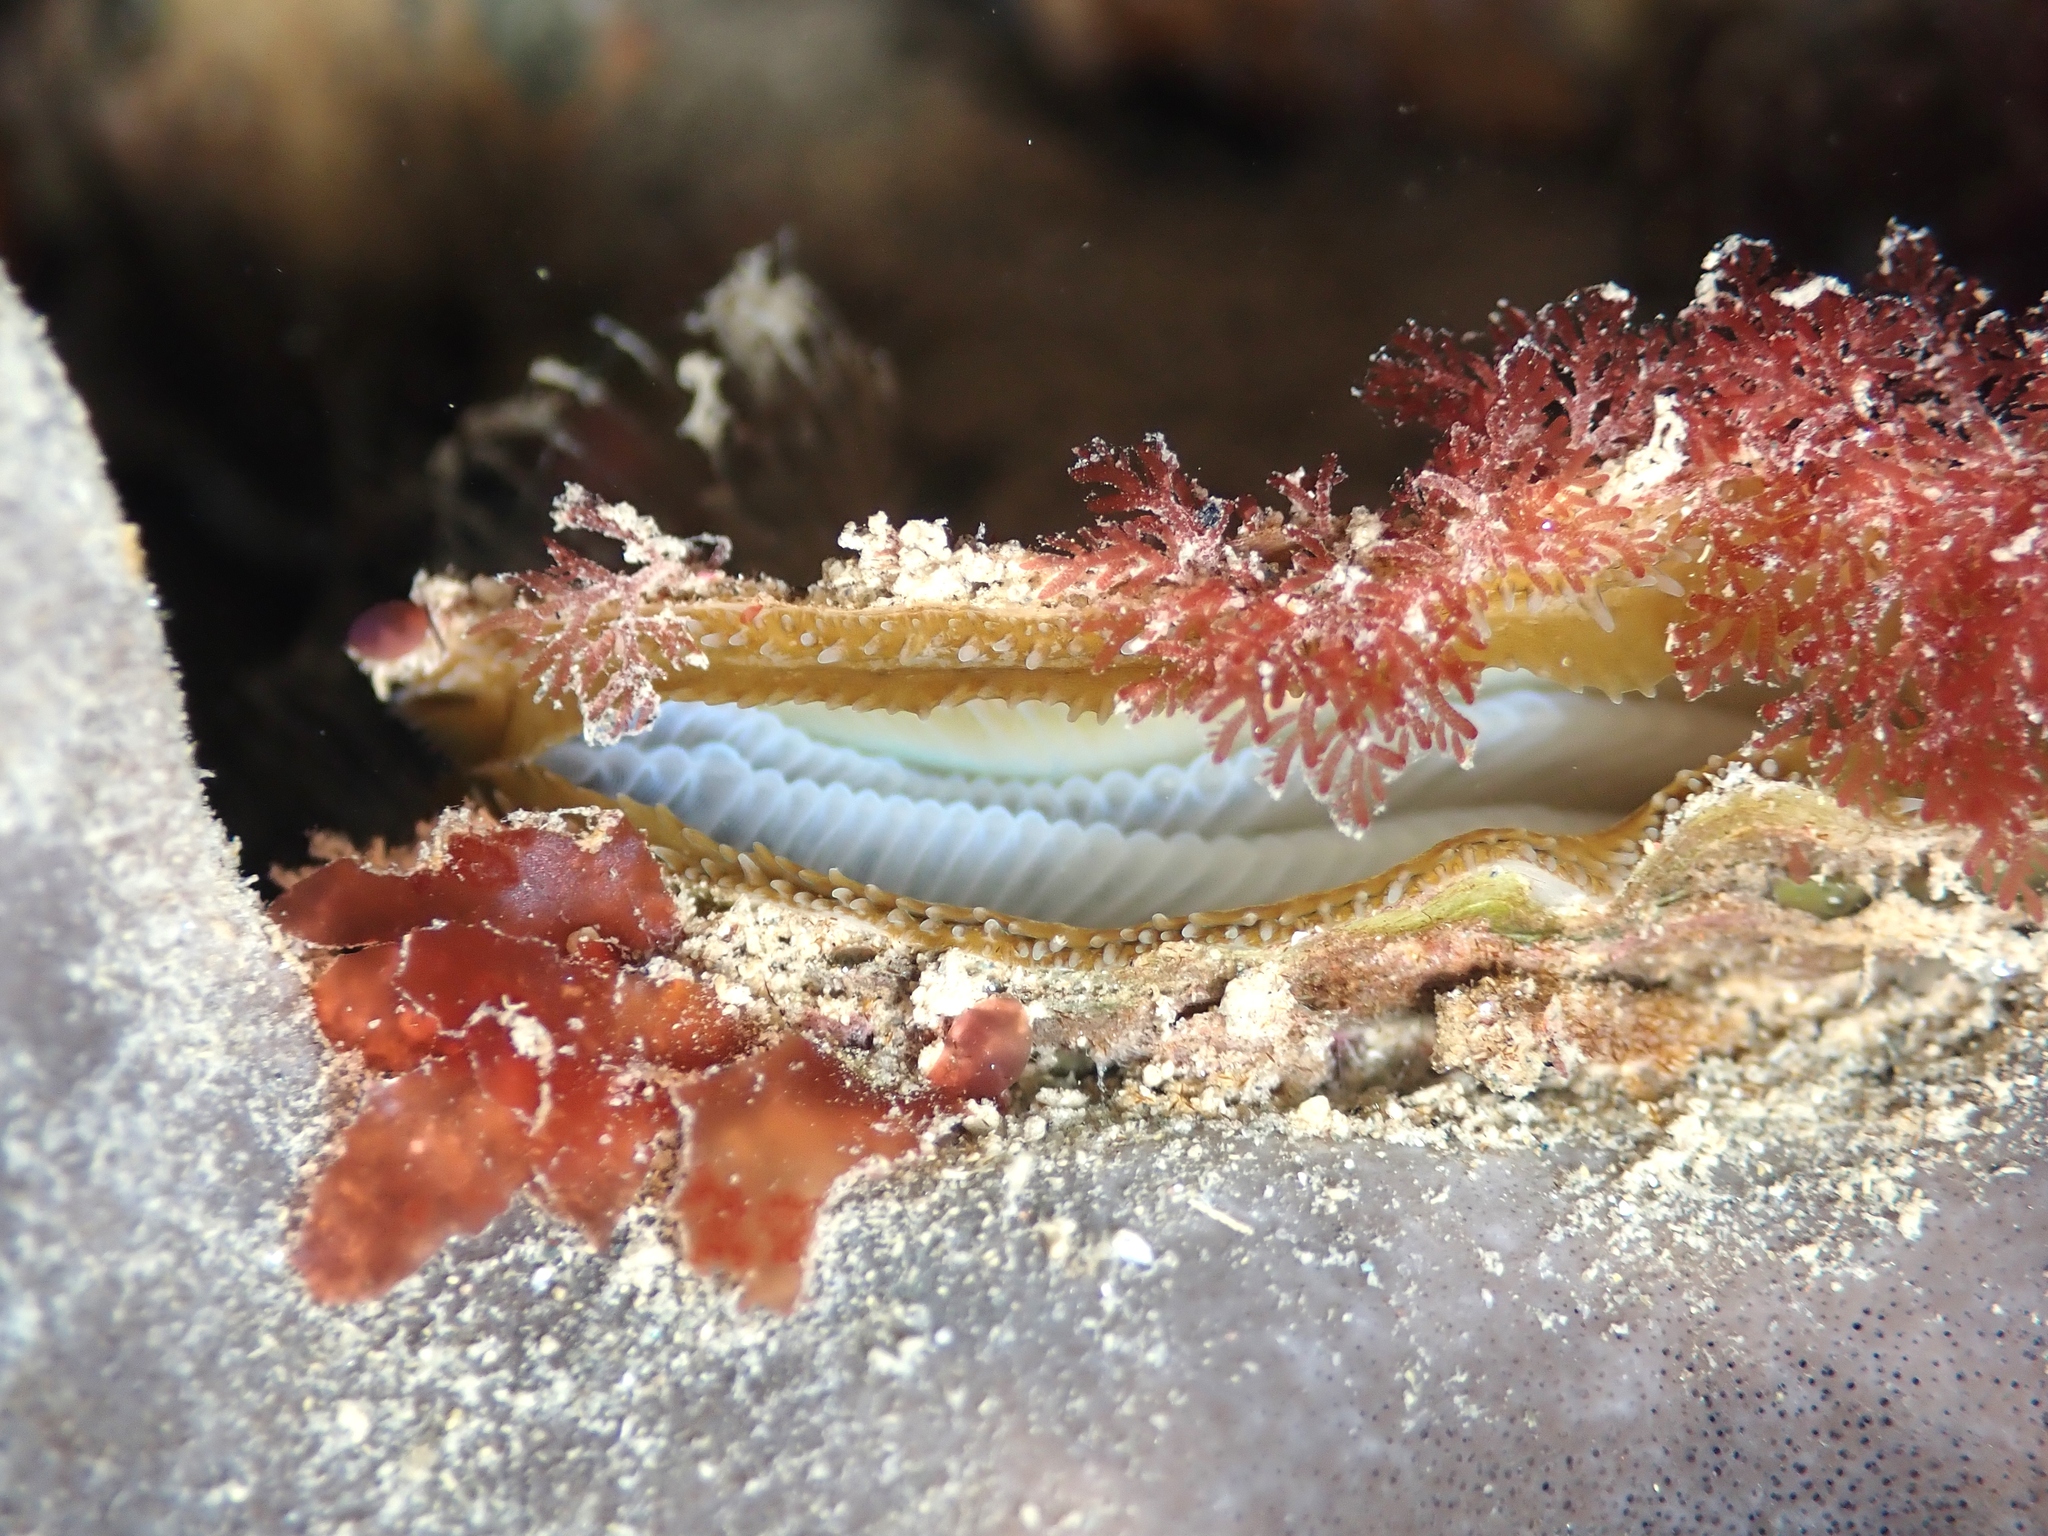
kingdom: Animalia
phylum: Mollusca
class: Bivalvia
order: Pectinida
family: Anomiidae
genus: Anomia
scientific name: Anomia trigonopsis
